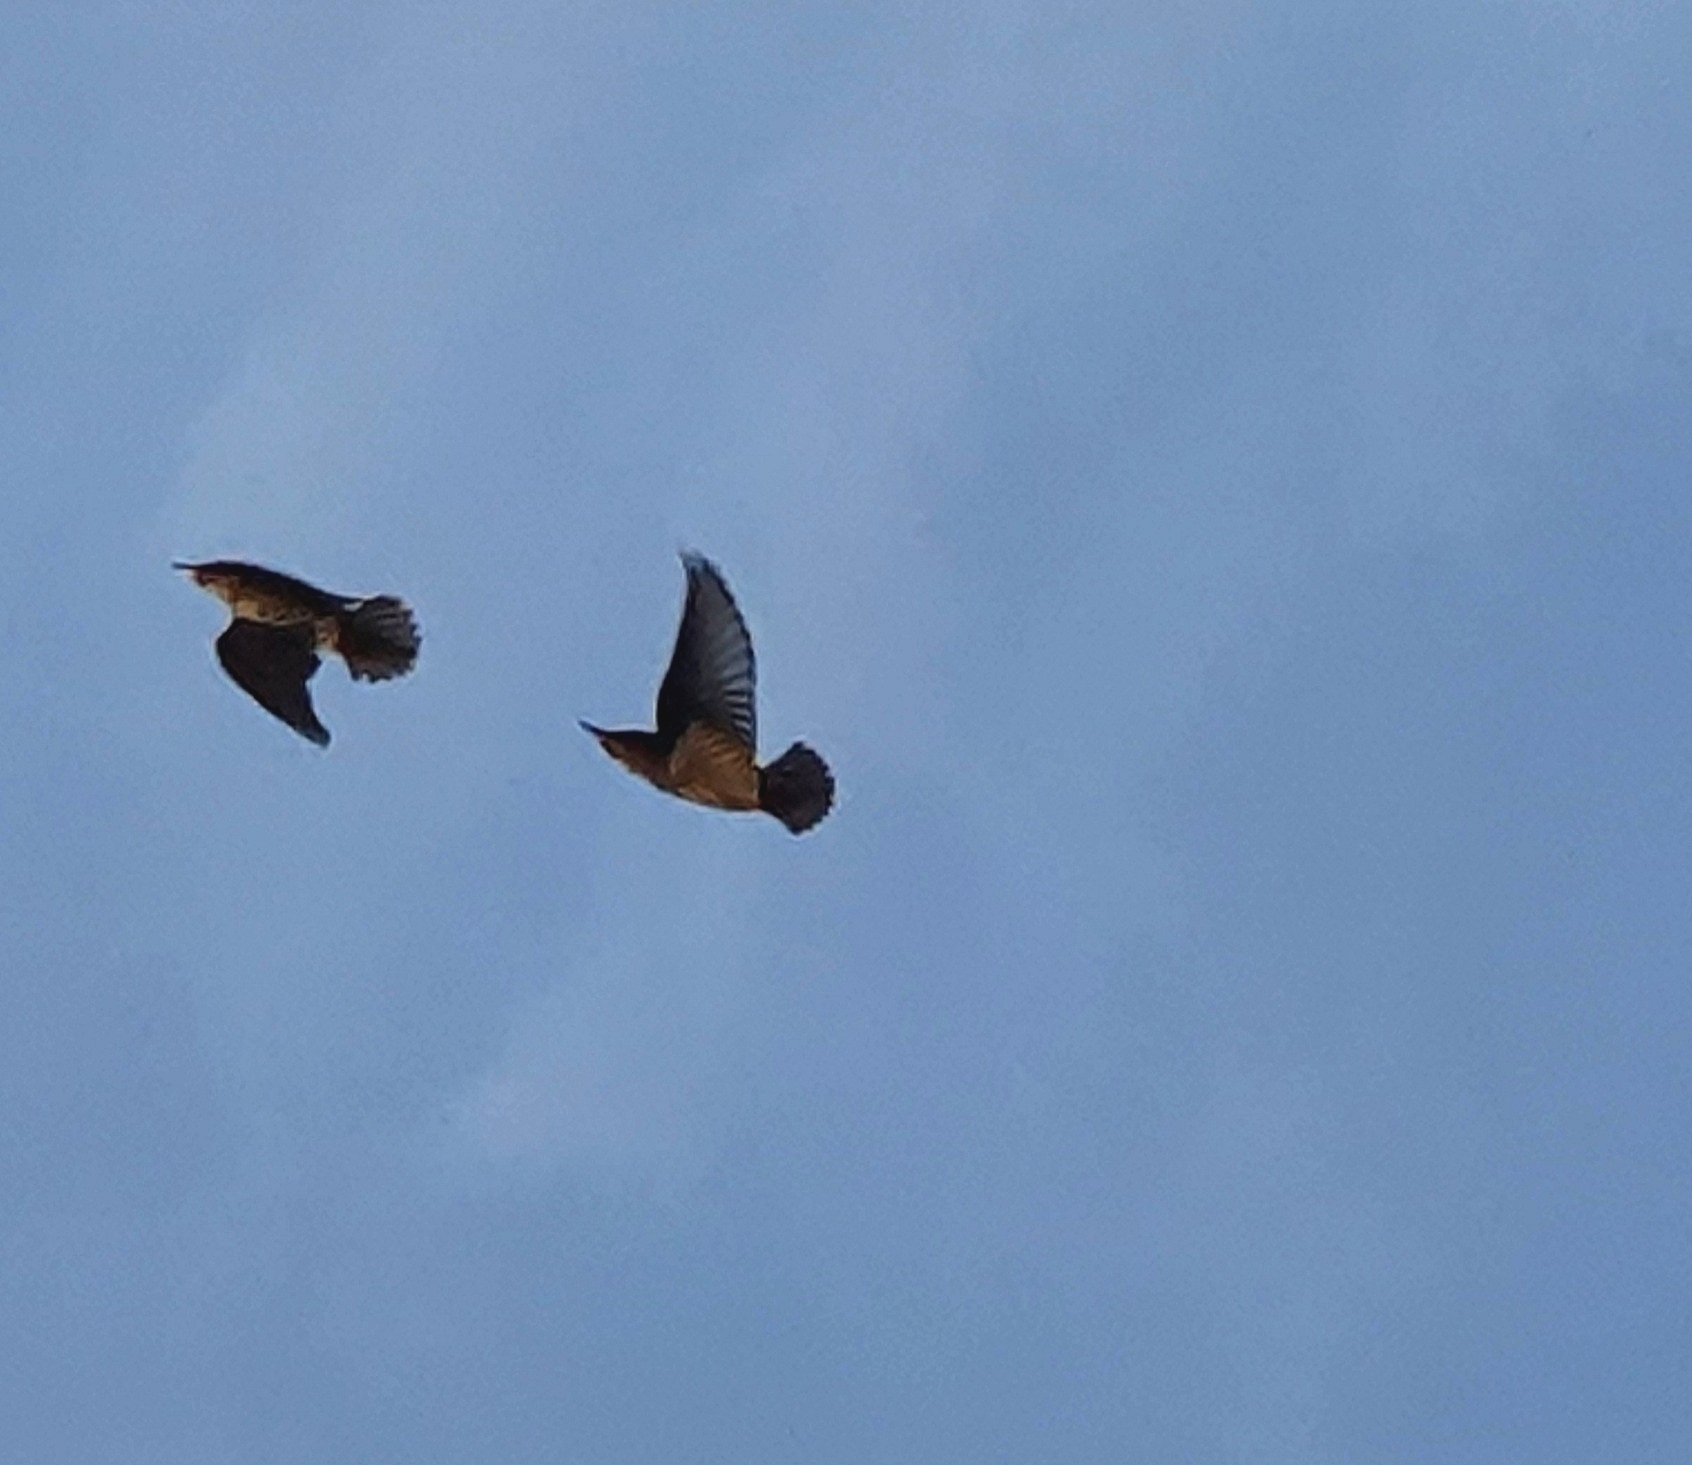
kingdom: Animalia
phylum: Chordata
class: Aves
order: Passeriformes
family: Turdidae
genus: Turdus
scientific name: Turdus iliacus
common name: Redwing
